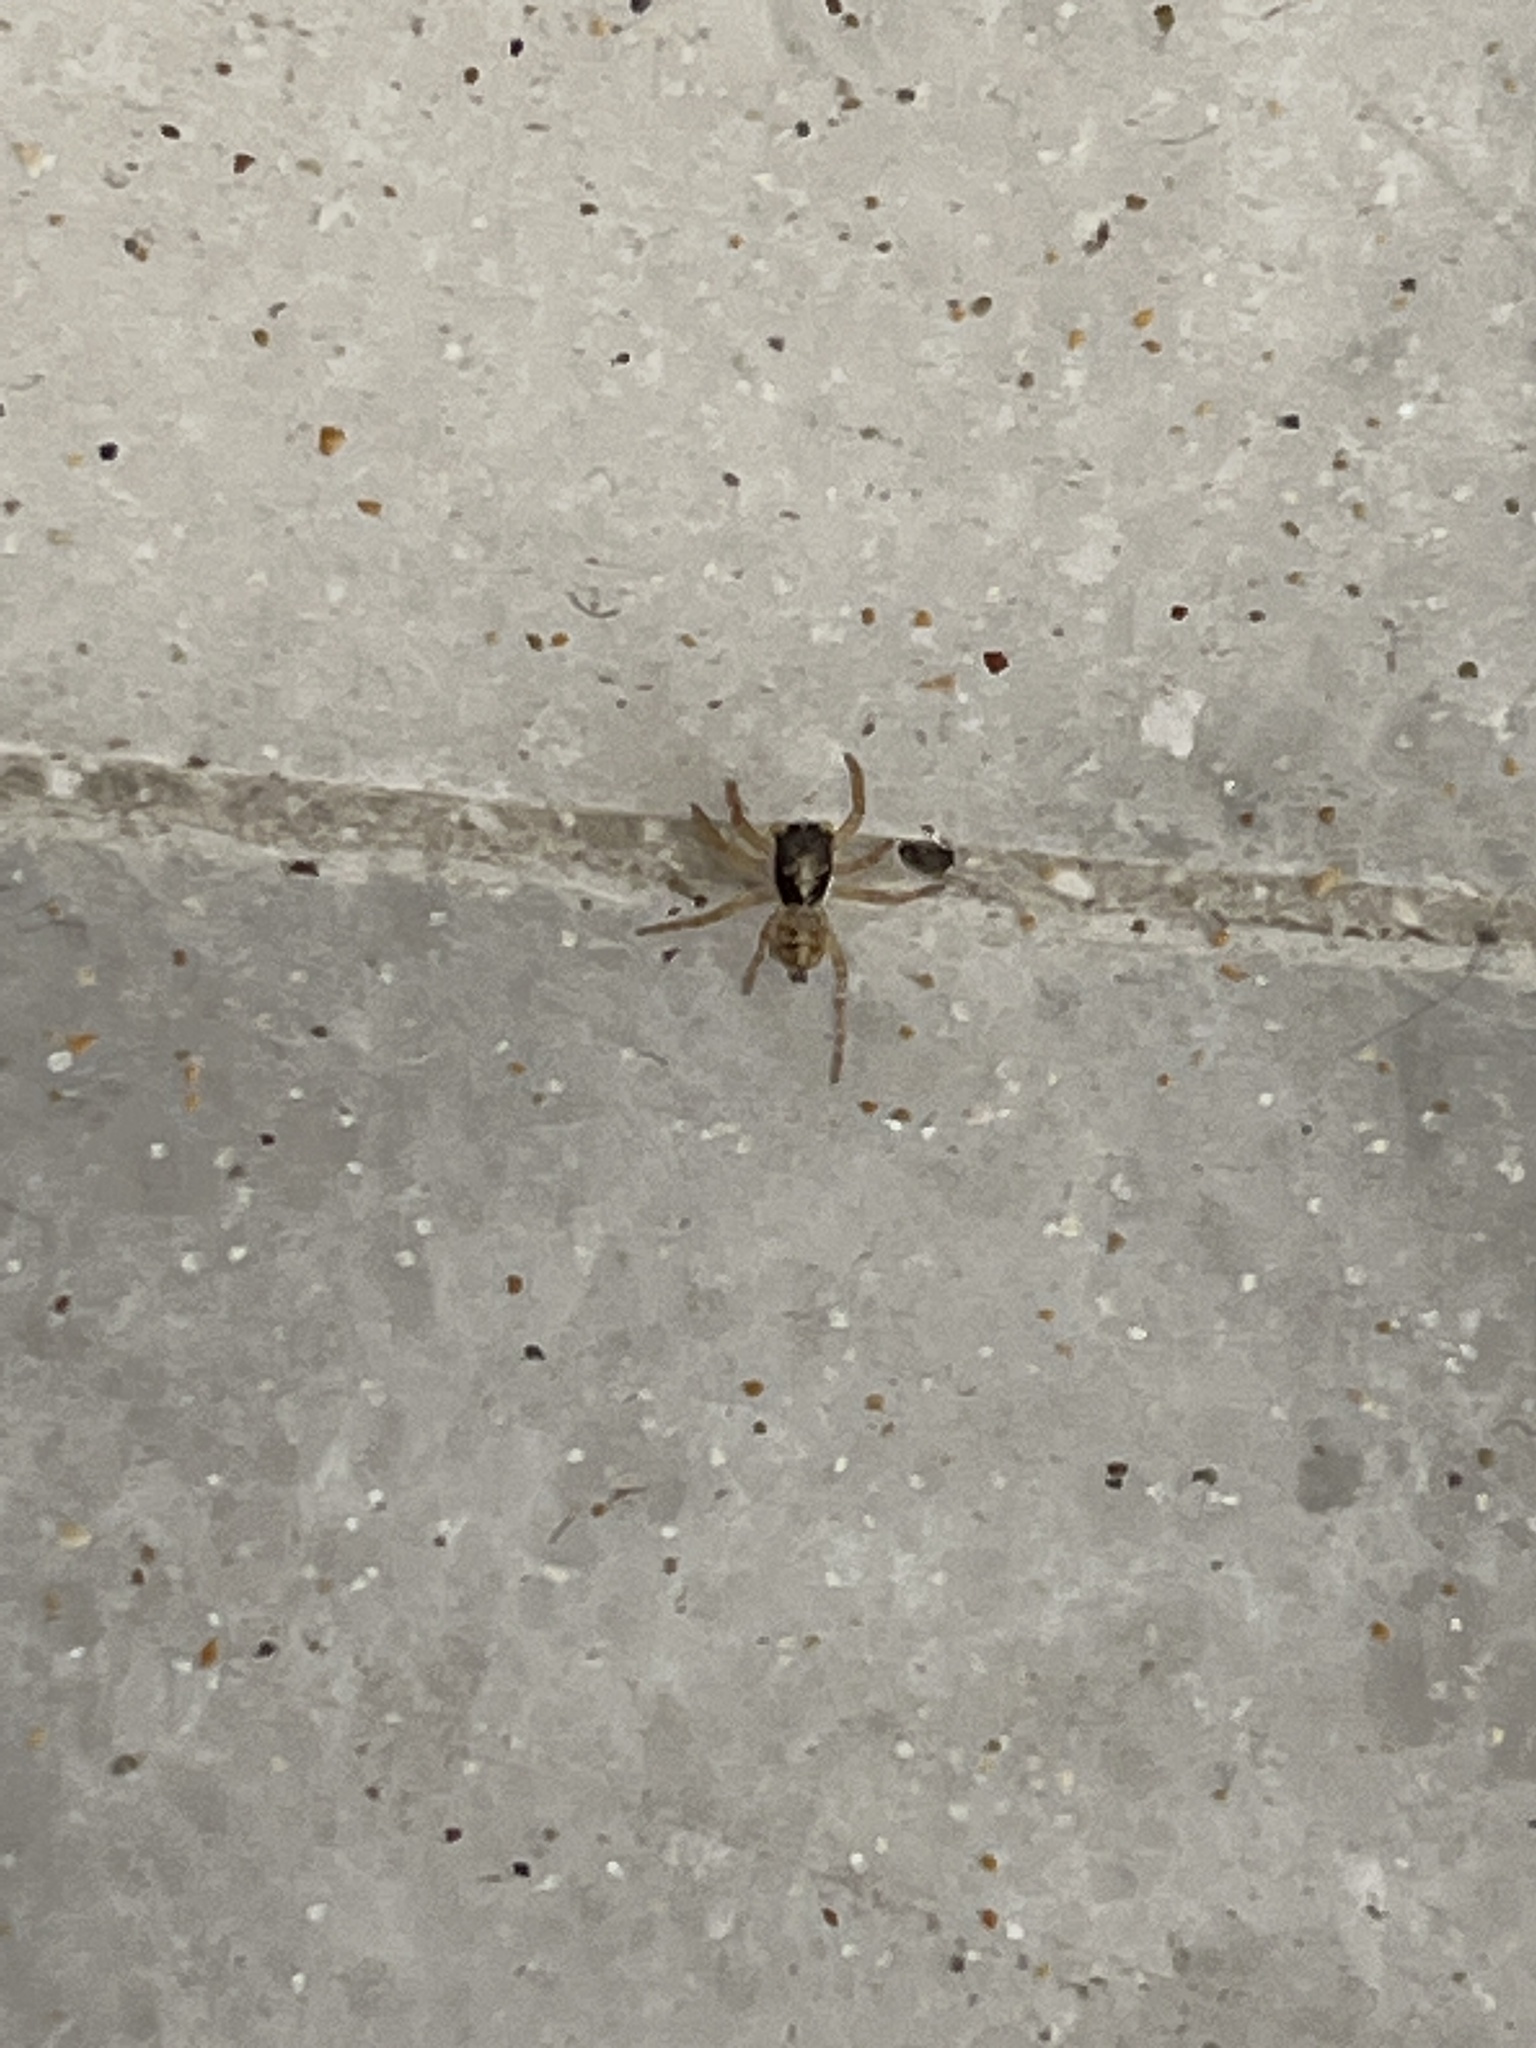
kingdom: Animalia
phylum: Arthropoda
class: Arachnida
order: Araneae
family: Salticidae
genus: Menemerus
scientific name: Menemerus semilimbatus
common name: Jumping spider
